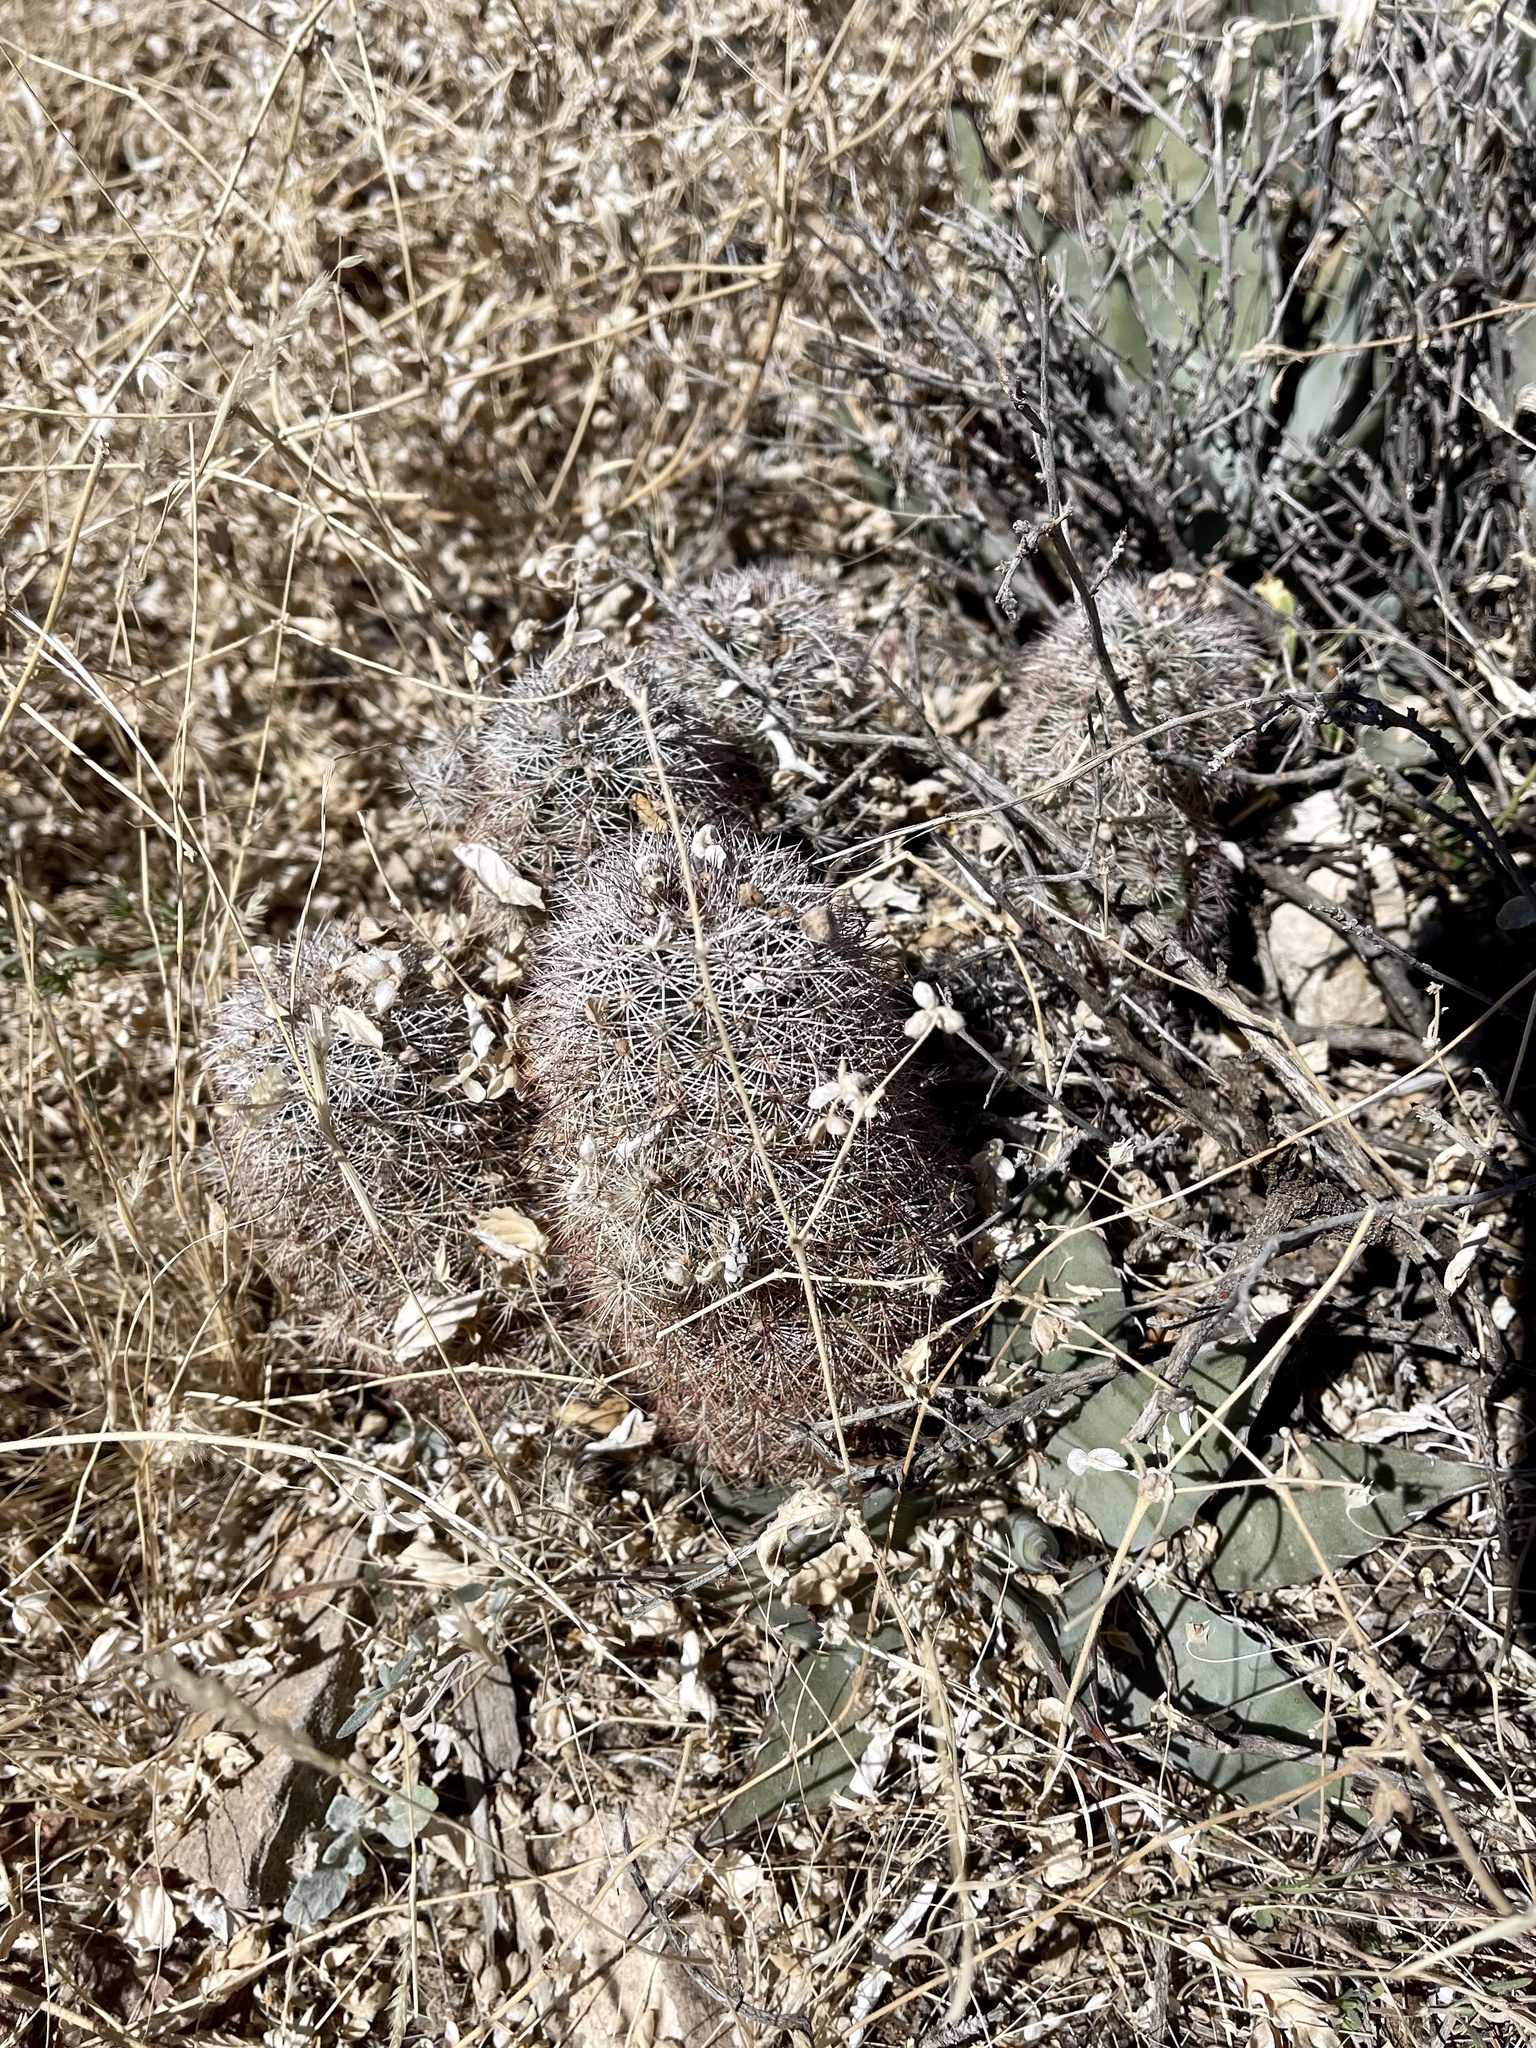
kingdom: Plantae
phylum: Tracheophyta
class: Magnoliopsida
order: Caryophyllales
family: Cactaceae
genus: Echinocereus
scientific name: Echinocereus dasyacanthus
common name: Spiny hedgehog cactus
